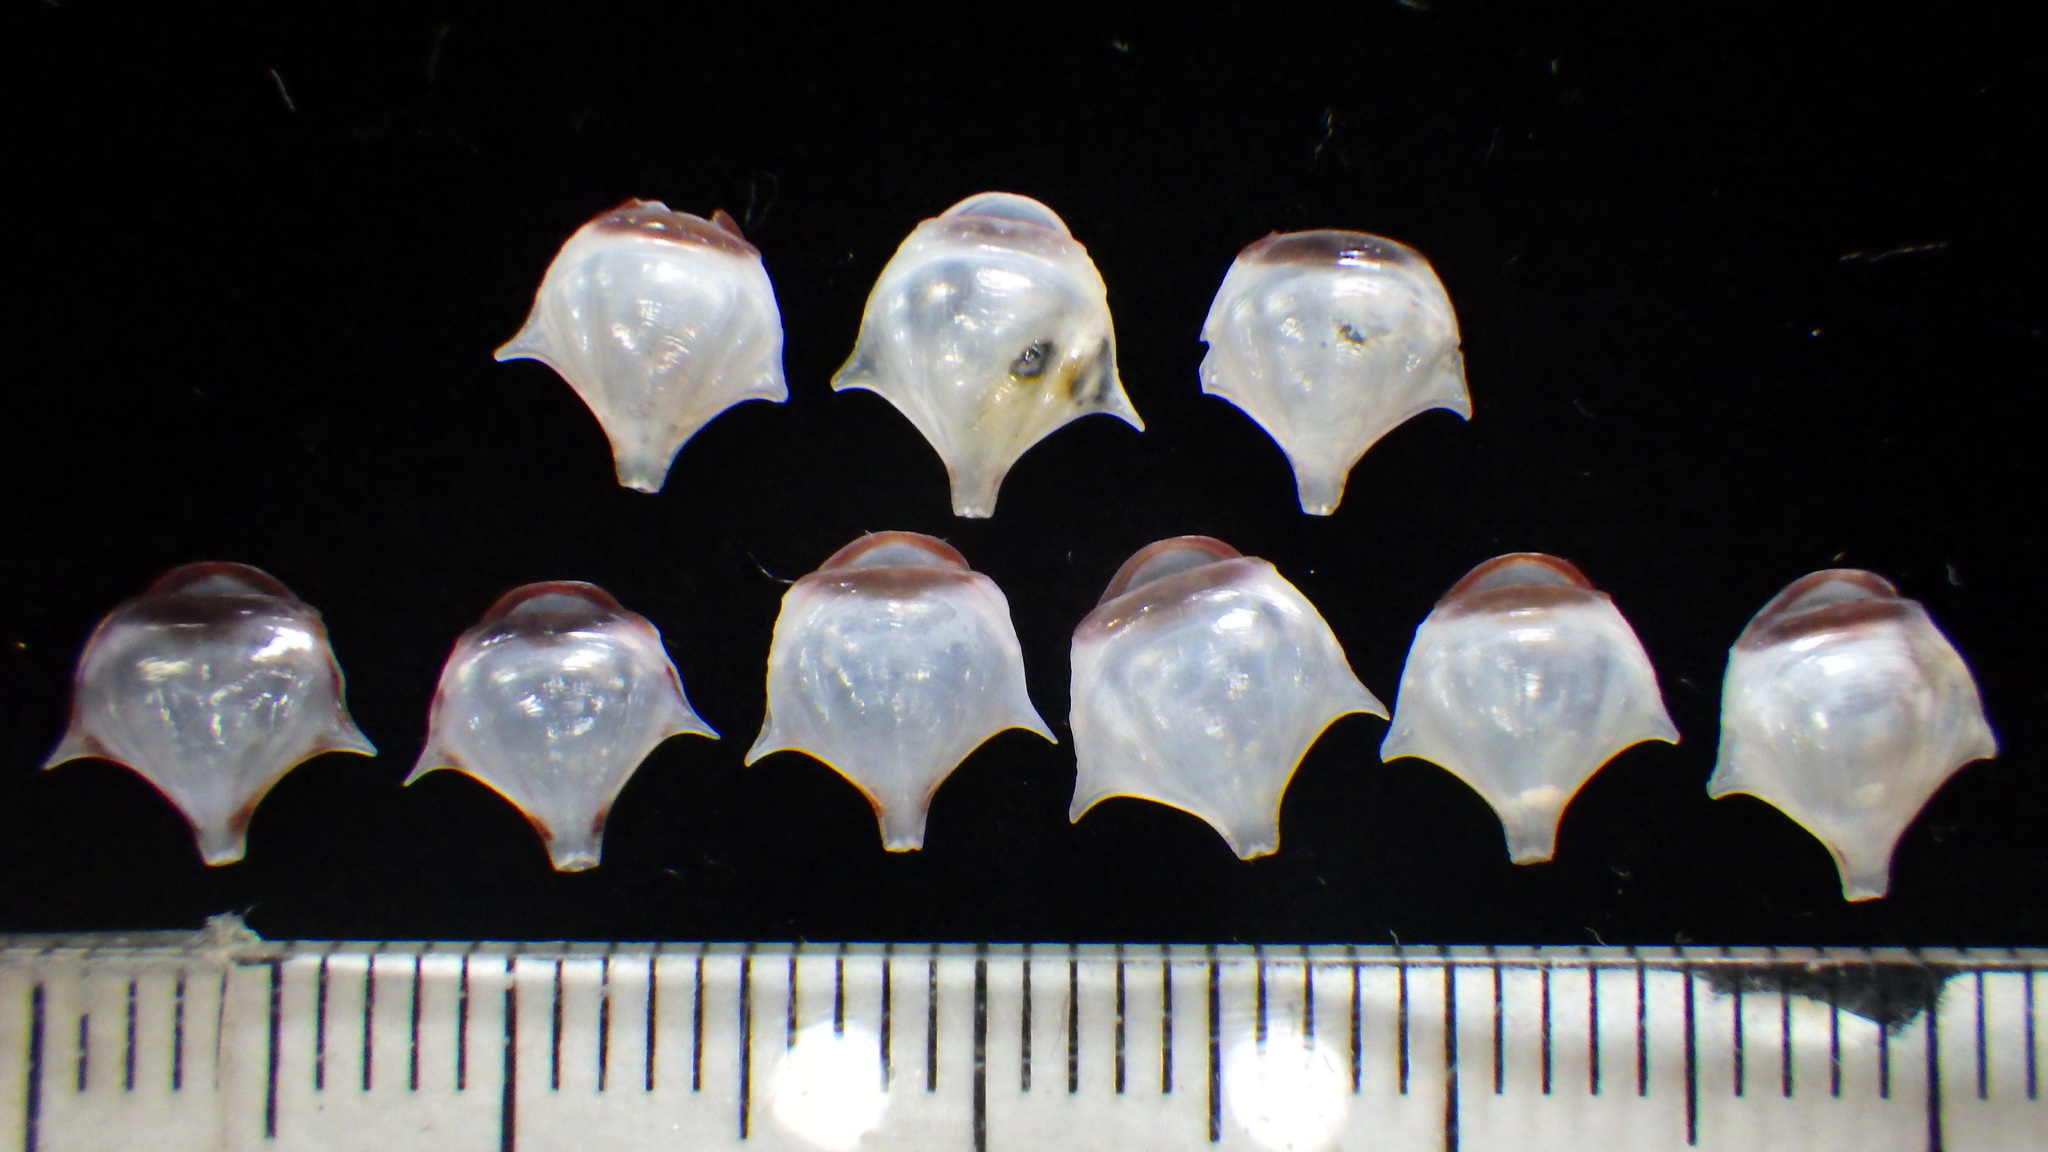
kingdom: Animalia
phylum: Mollusca
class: Gastropoda
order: Pteropoda
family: Cavoliniidae
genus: Diacria
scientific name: Diacria major
